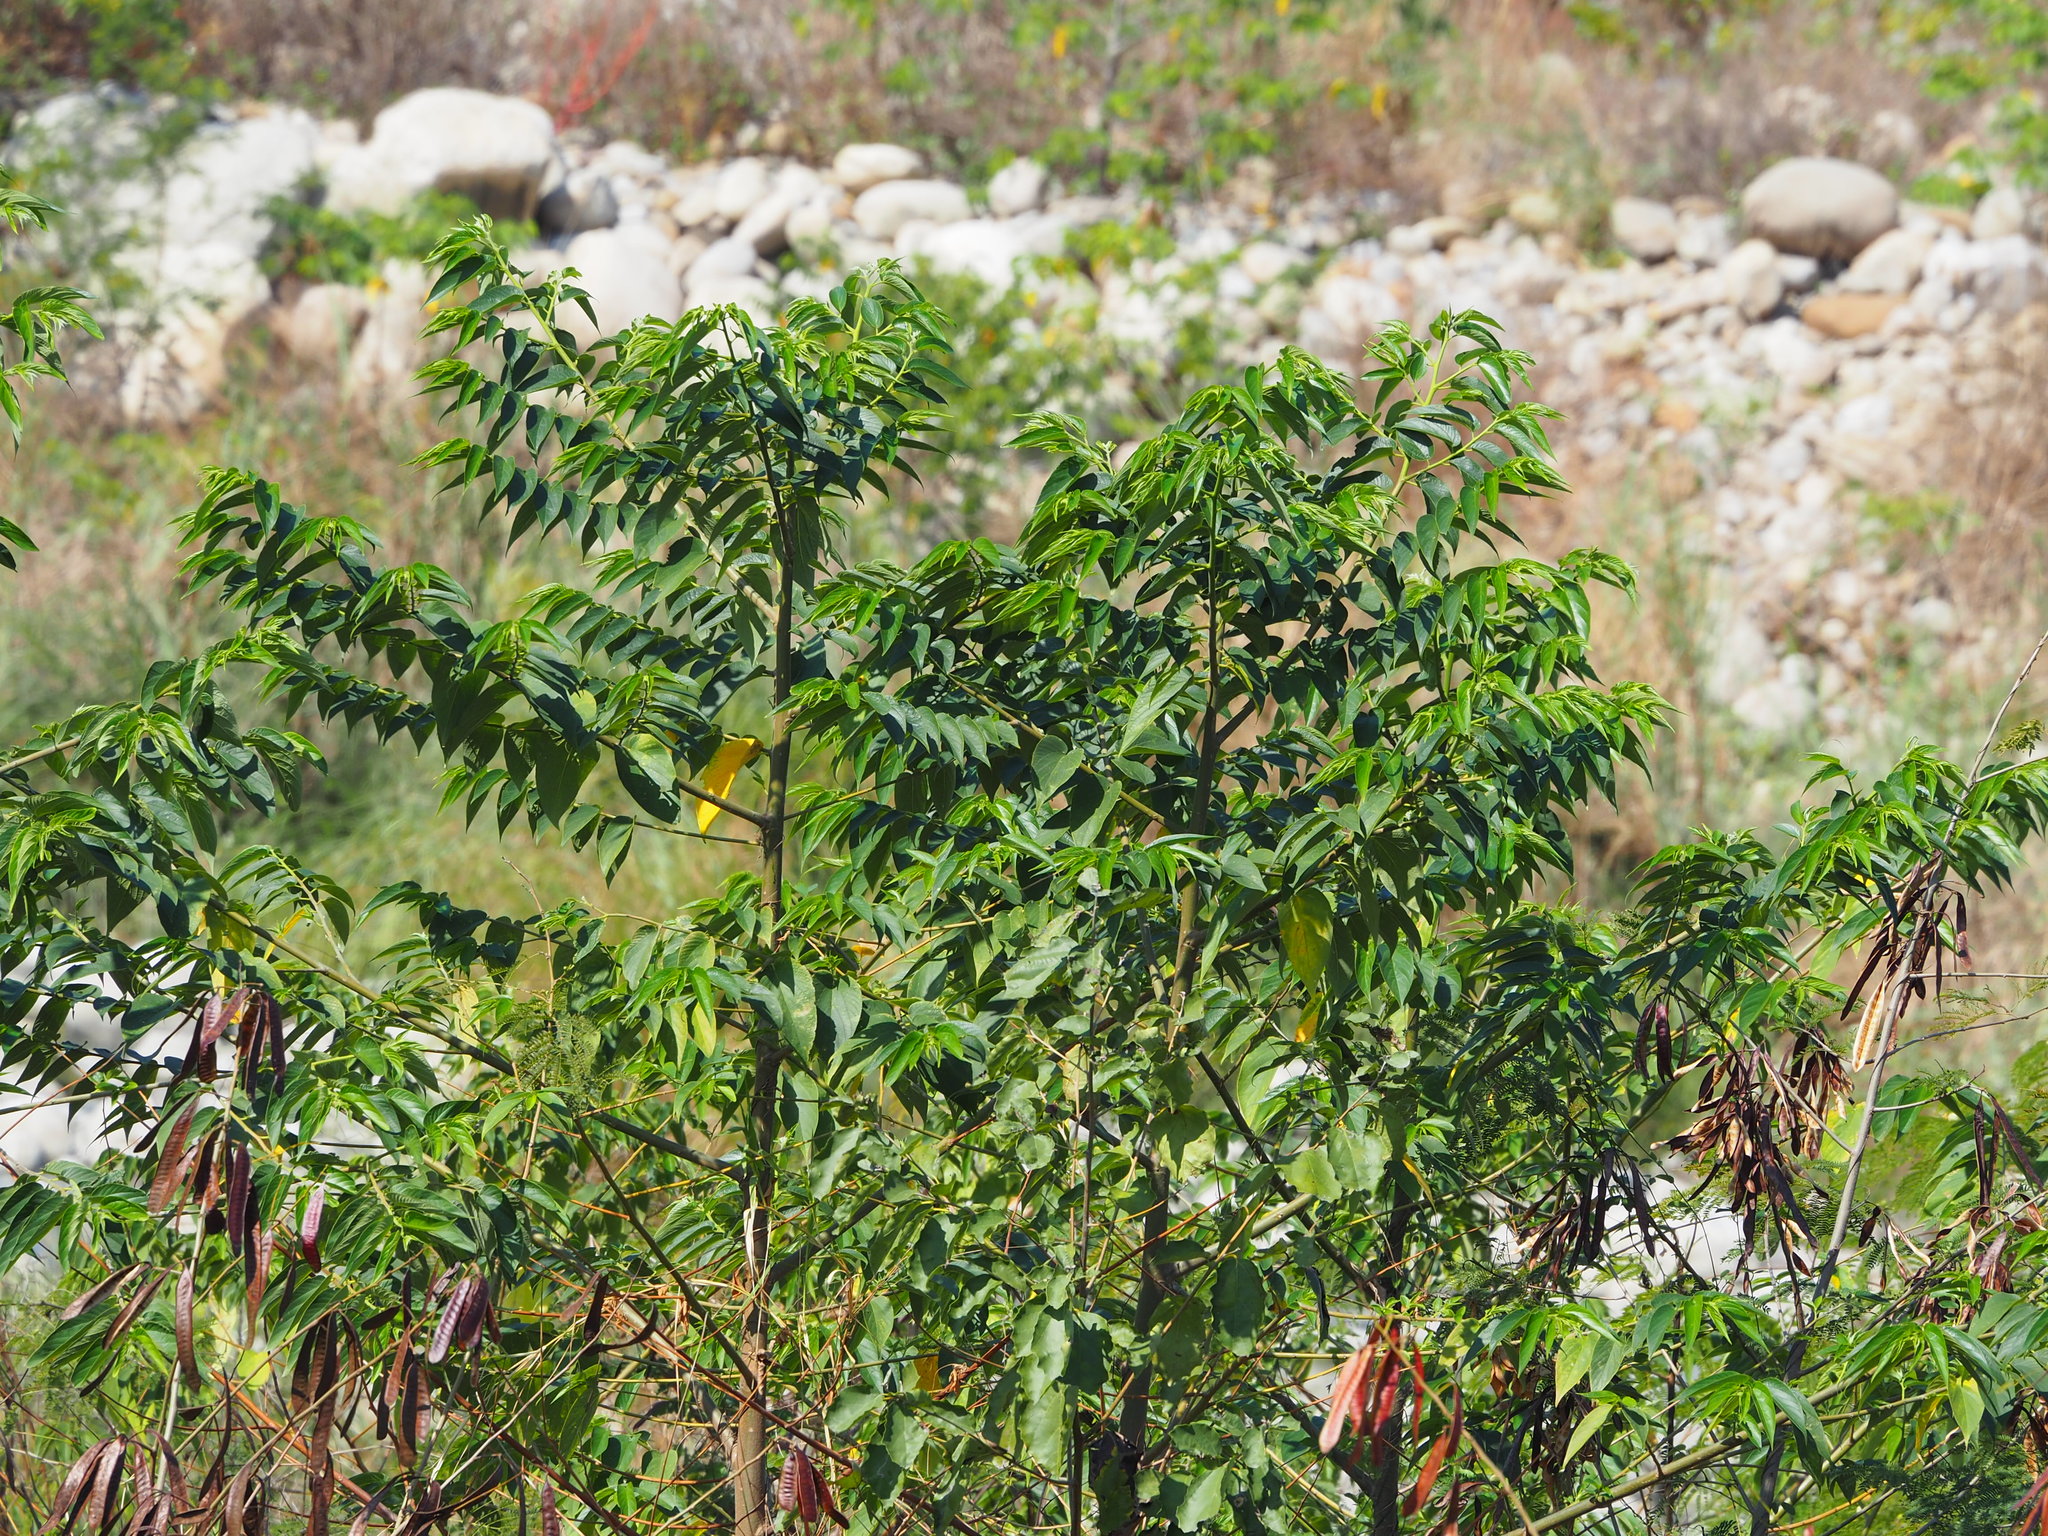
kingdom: Plantae
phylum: Tracheophyta
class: Magnoliopsida
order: Rosales
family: Cannabaceae
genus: Trema
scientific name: Trema orientale
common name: Indian charcoal tree
